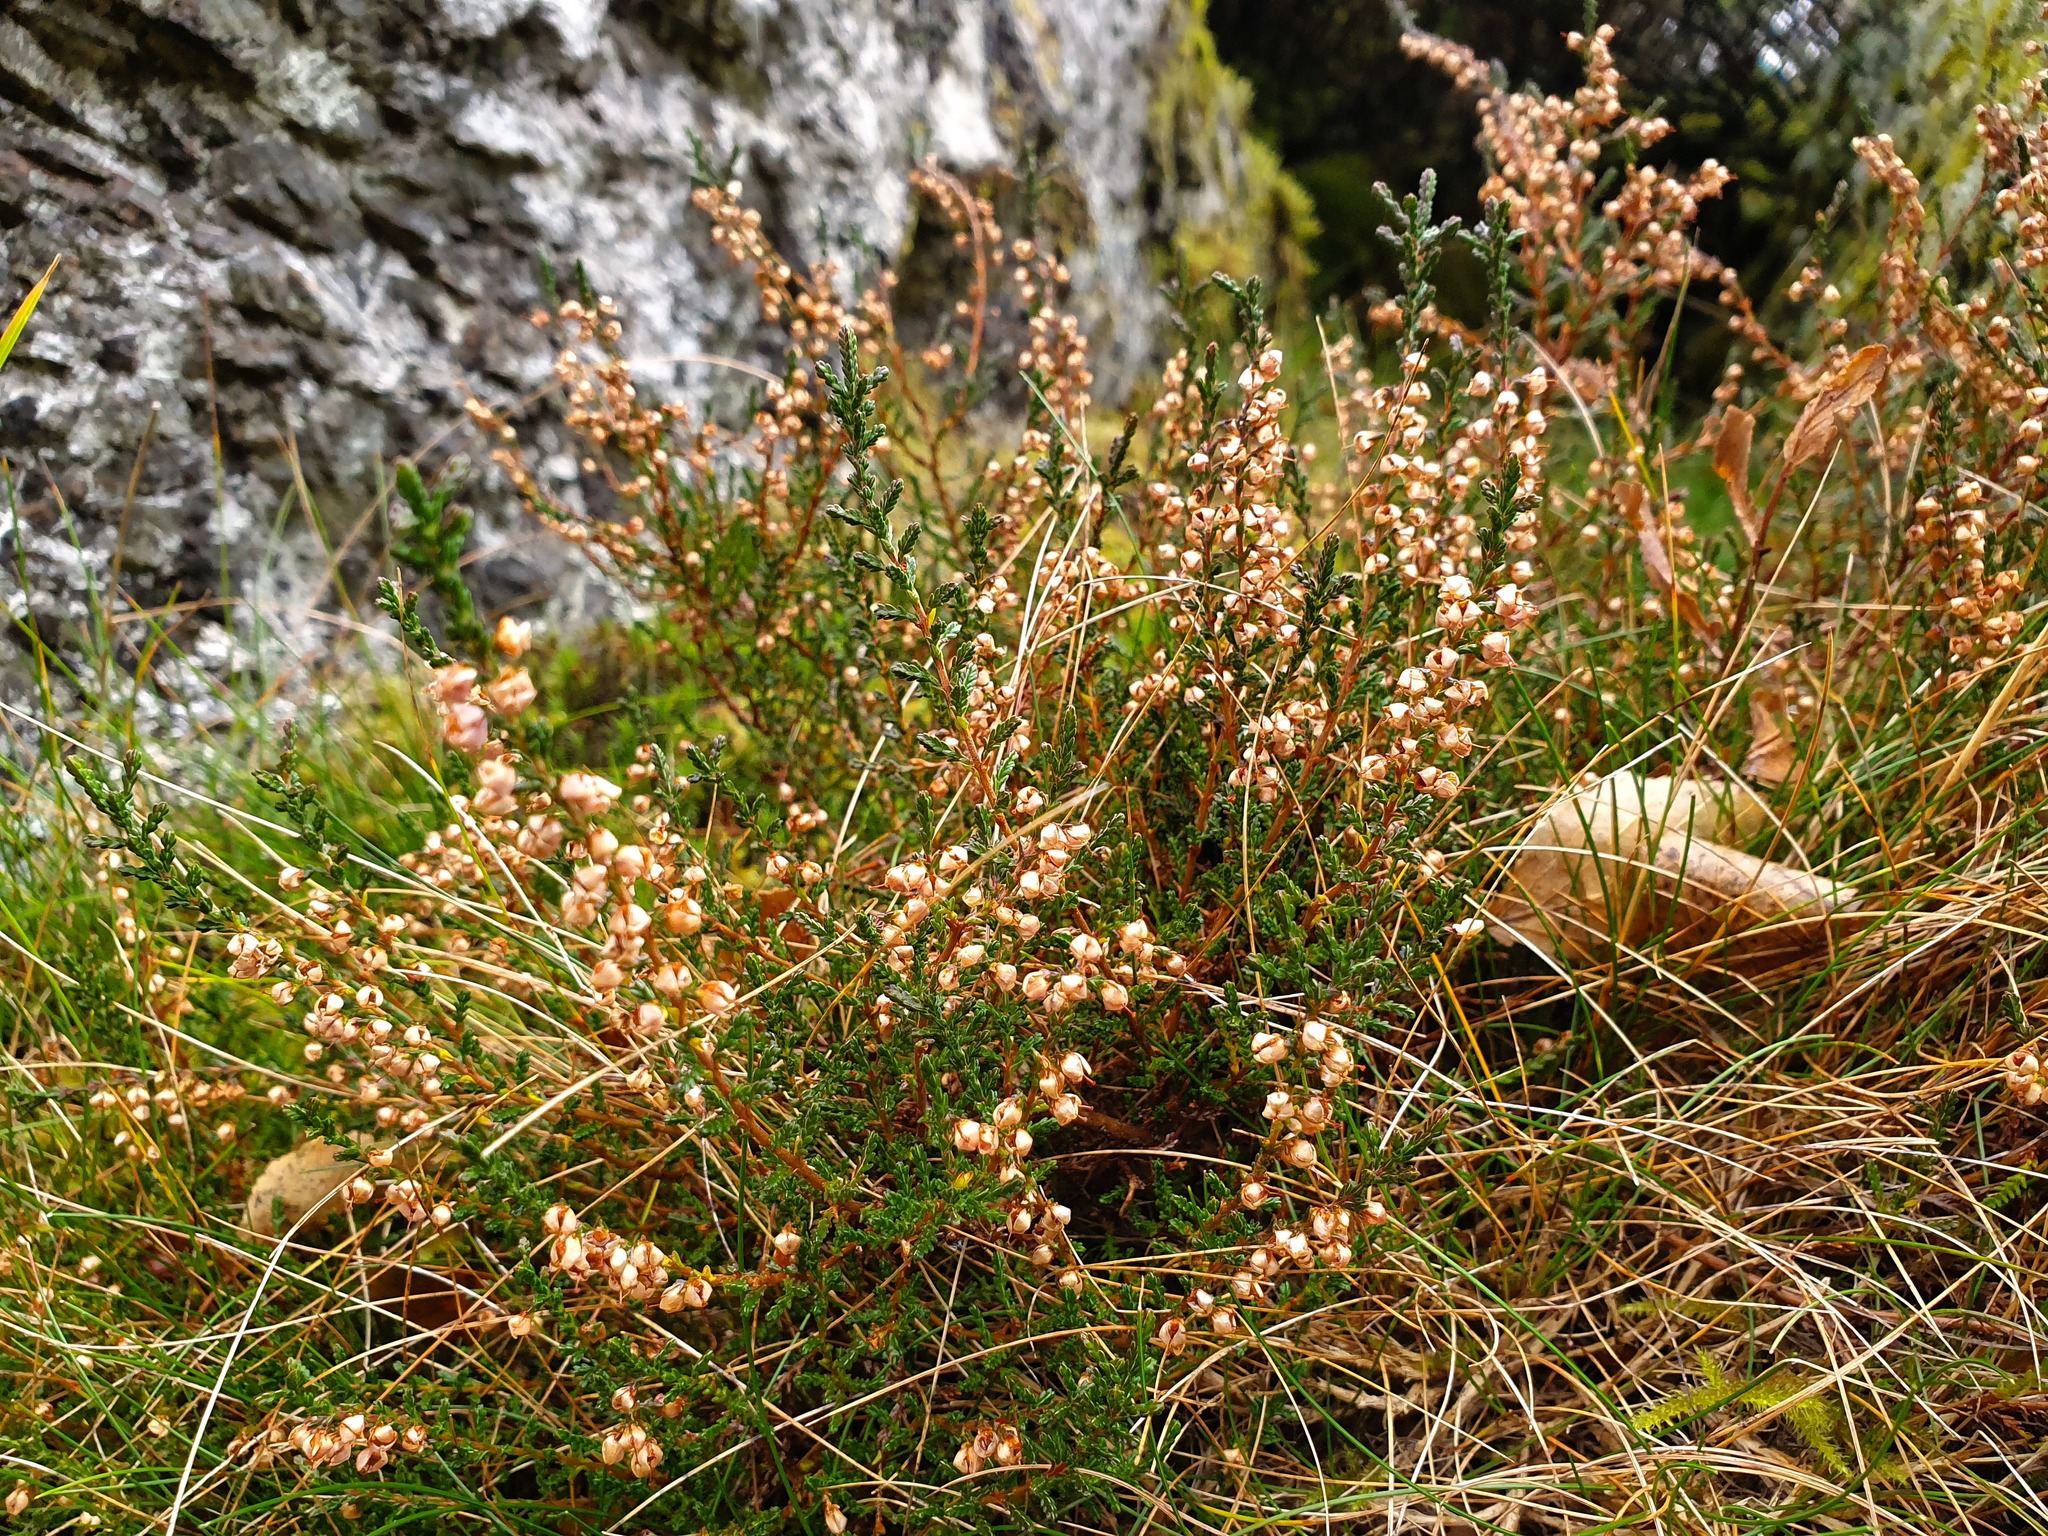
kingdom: Plantae
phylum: Tracheophyta
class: Magnoliopsida
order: Ericales
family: Ericaceae
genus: Calluna
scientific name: Calluna vulgaris
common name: Heather
